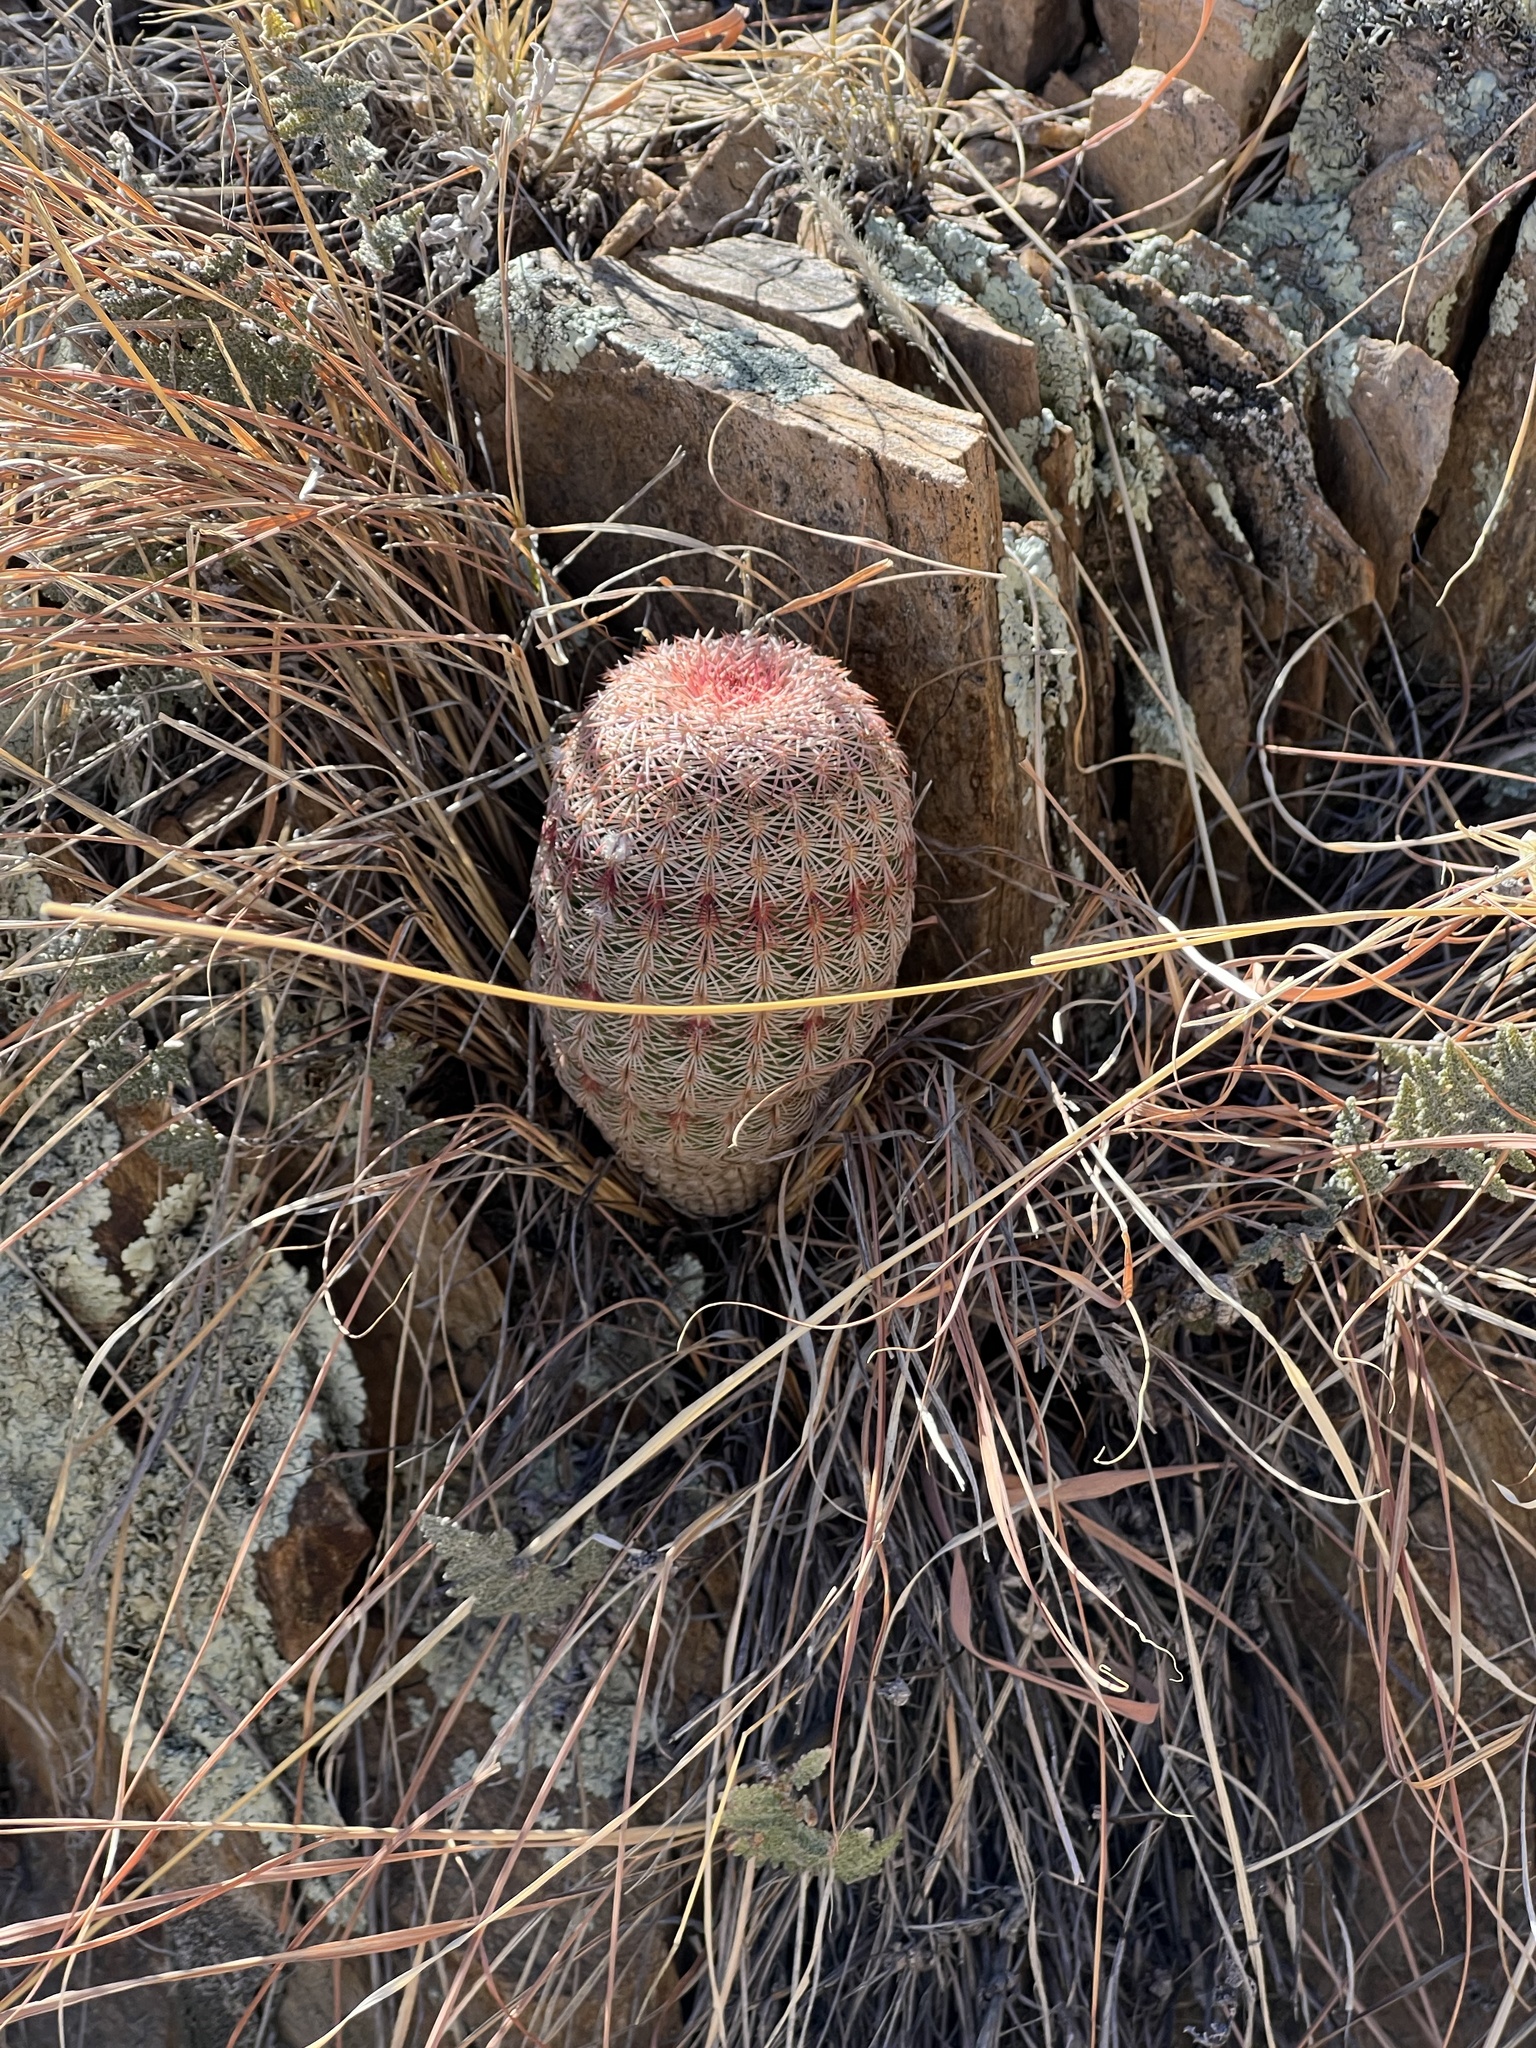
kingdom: Plantae
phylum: Tracheophyta
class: Magnoliopsida
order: Caryophyllales
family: Cactaceae
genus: Echinocereus
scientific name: Echinocereus rigidissimus
